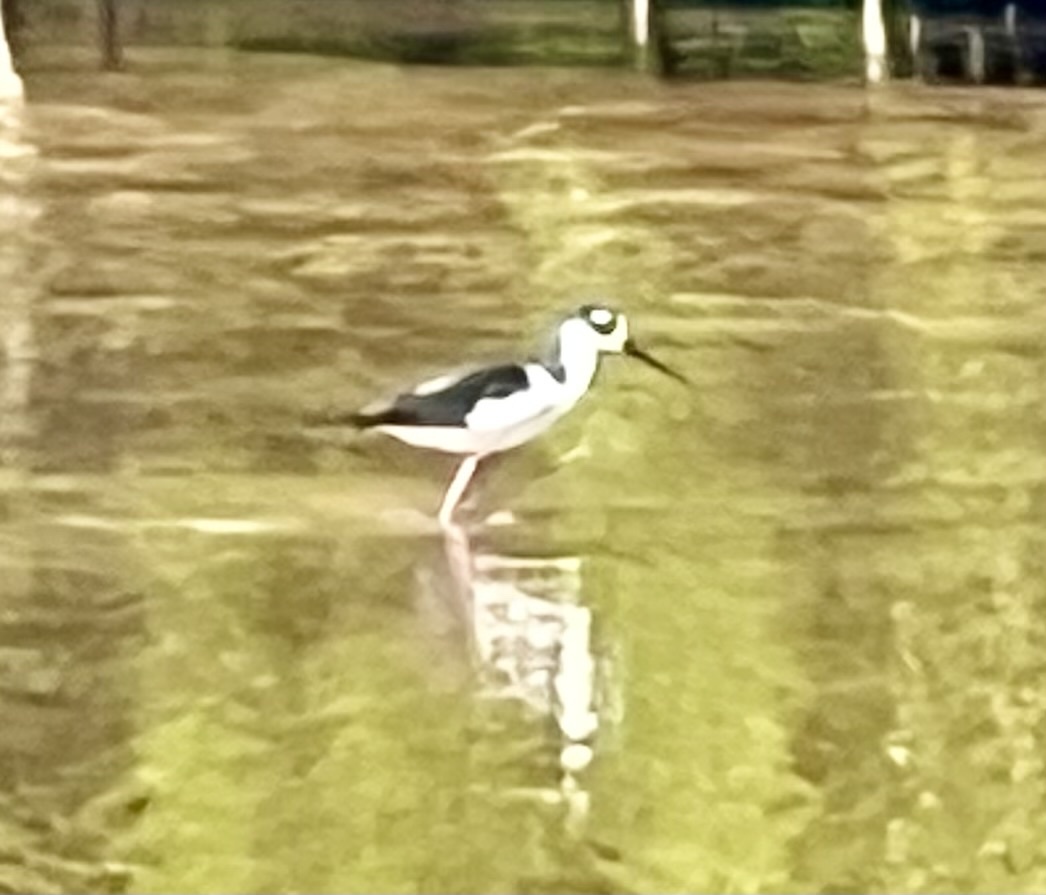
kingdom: Animalia
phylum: Chordata
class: Aves
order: Charadriiformes
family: Recurvirostridae
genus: Himantopus
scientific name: Himantopus mexicanus
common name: Black-necked stilt
